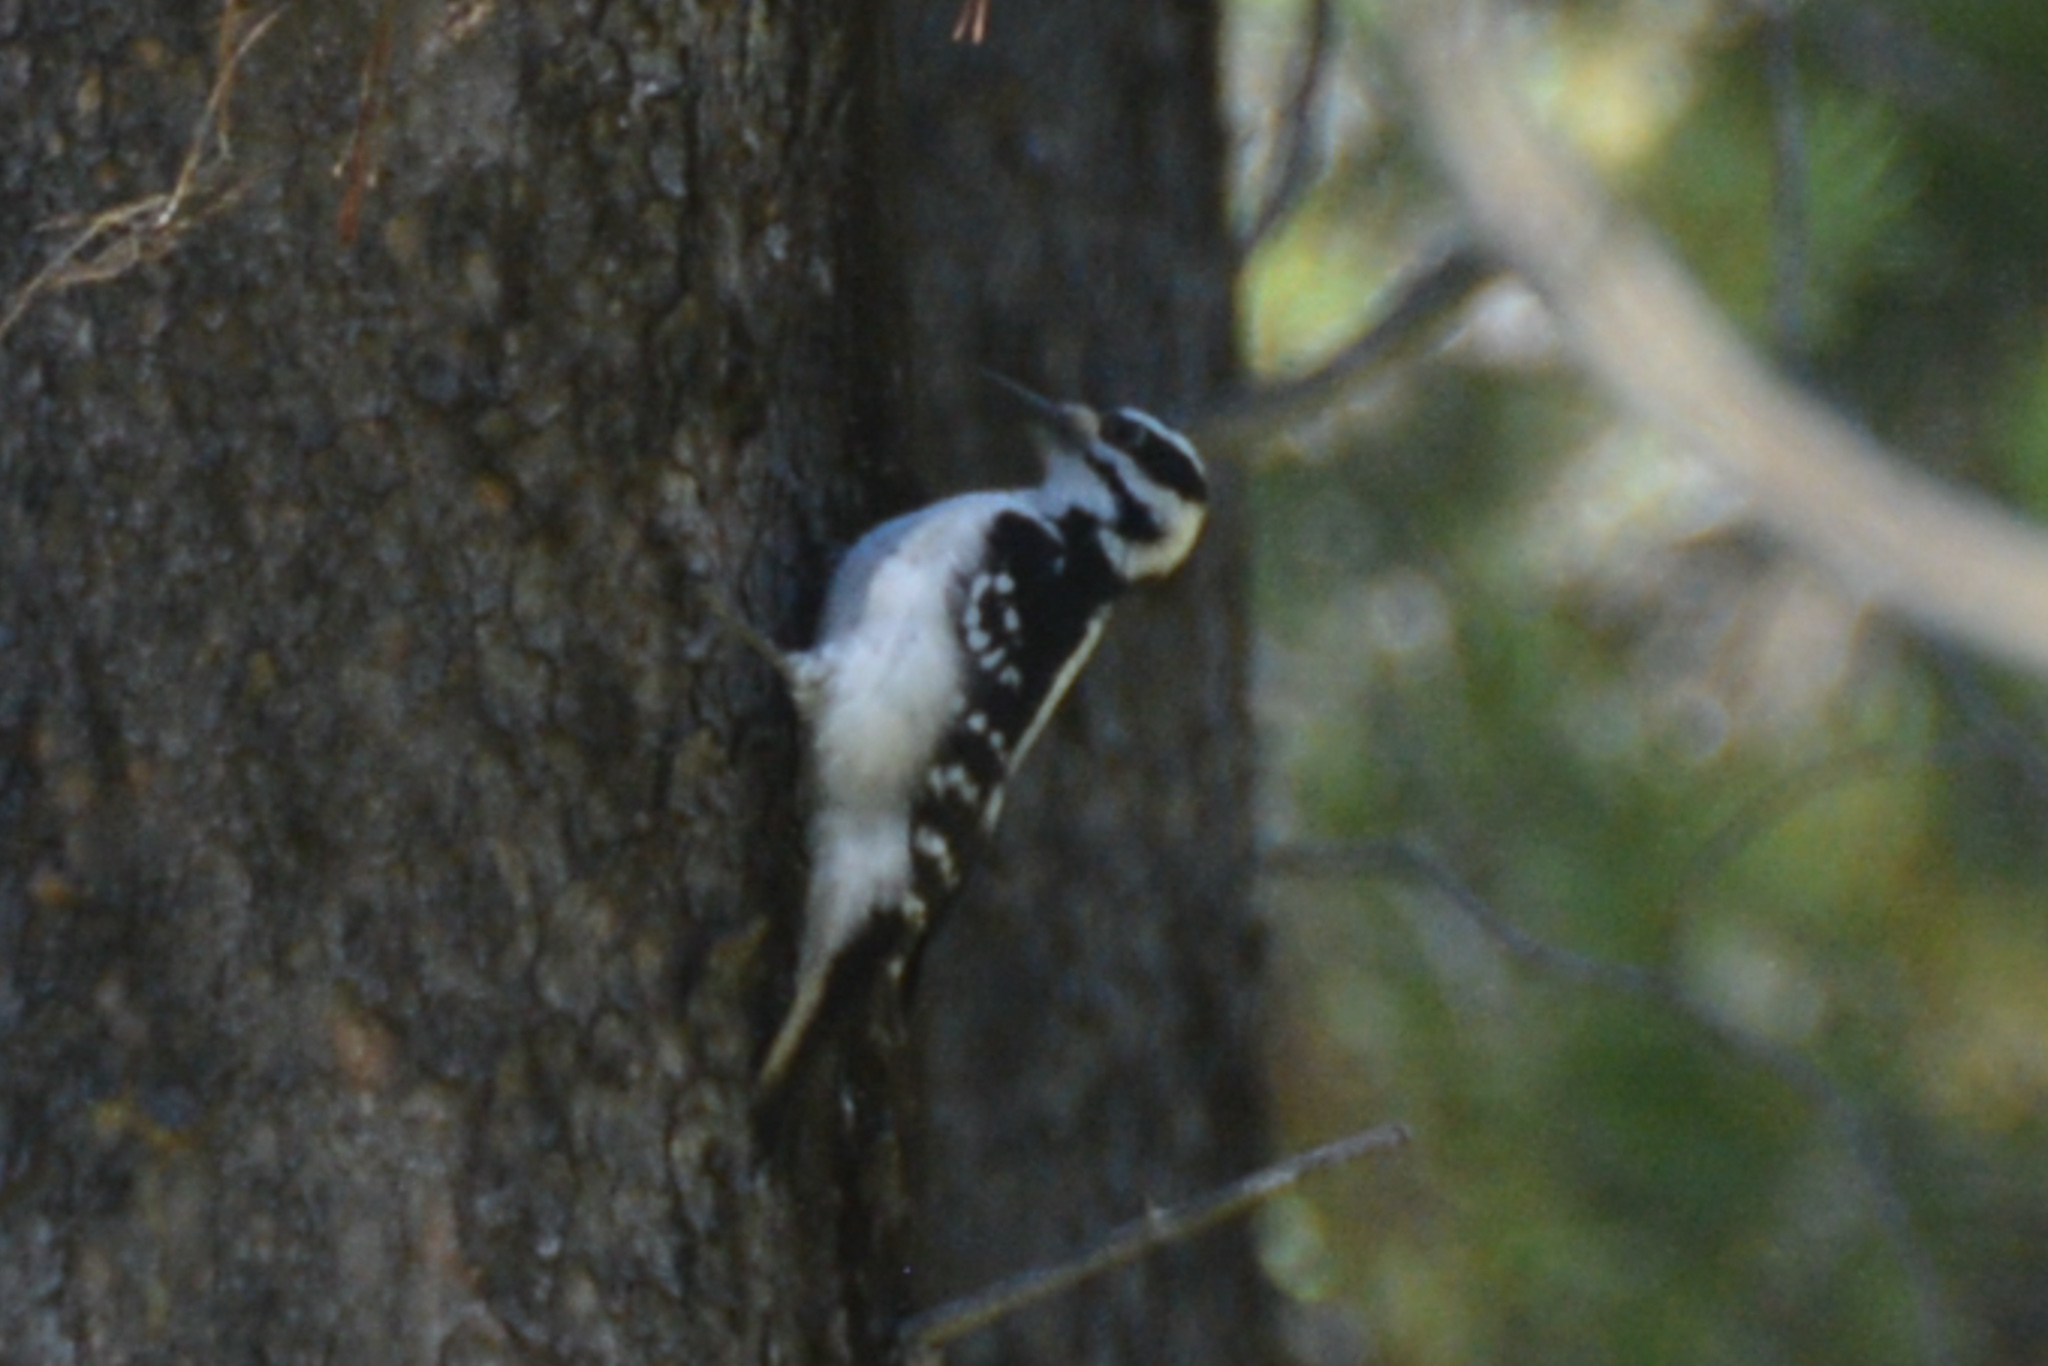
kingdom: Animalia
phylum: Chordata
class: Aves
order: Piciformes
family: Picidae
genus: Leuconotopicus
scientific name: Leuconotopicus villosus
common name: Hairy woodpecker
